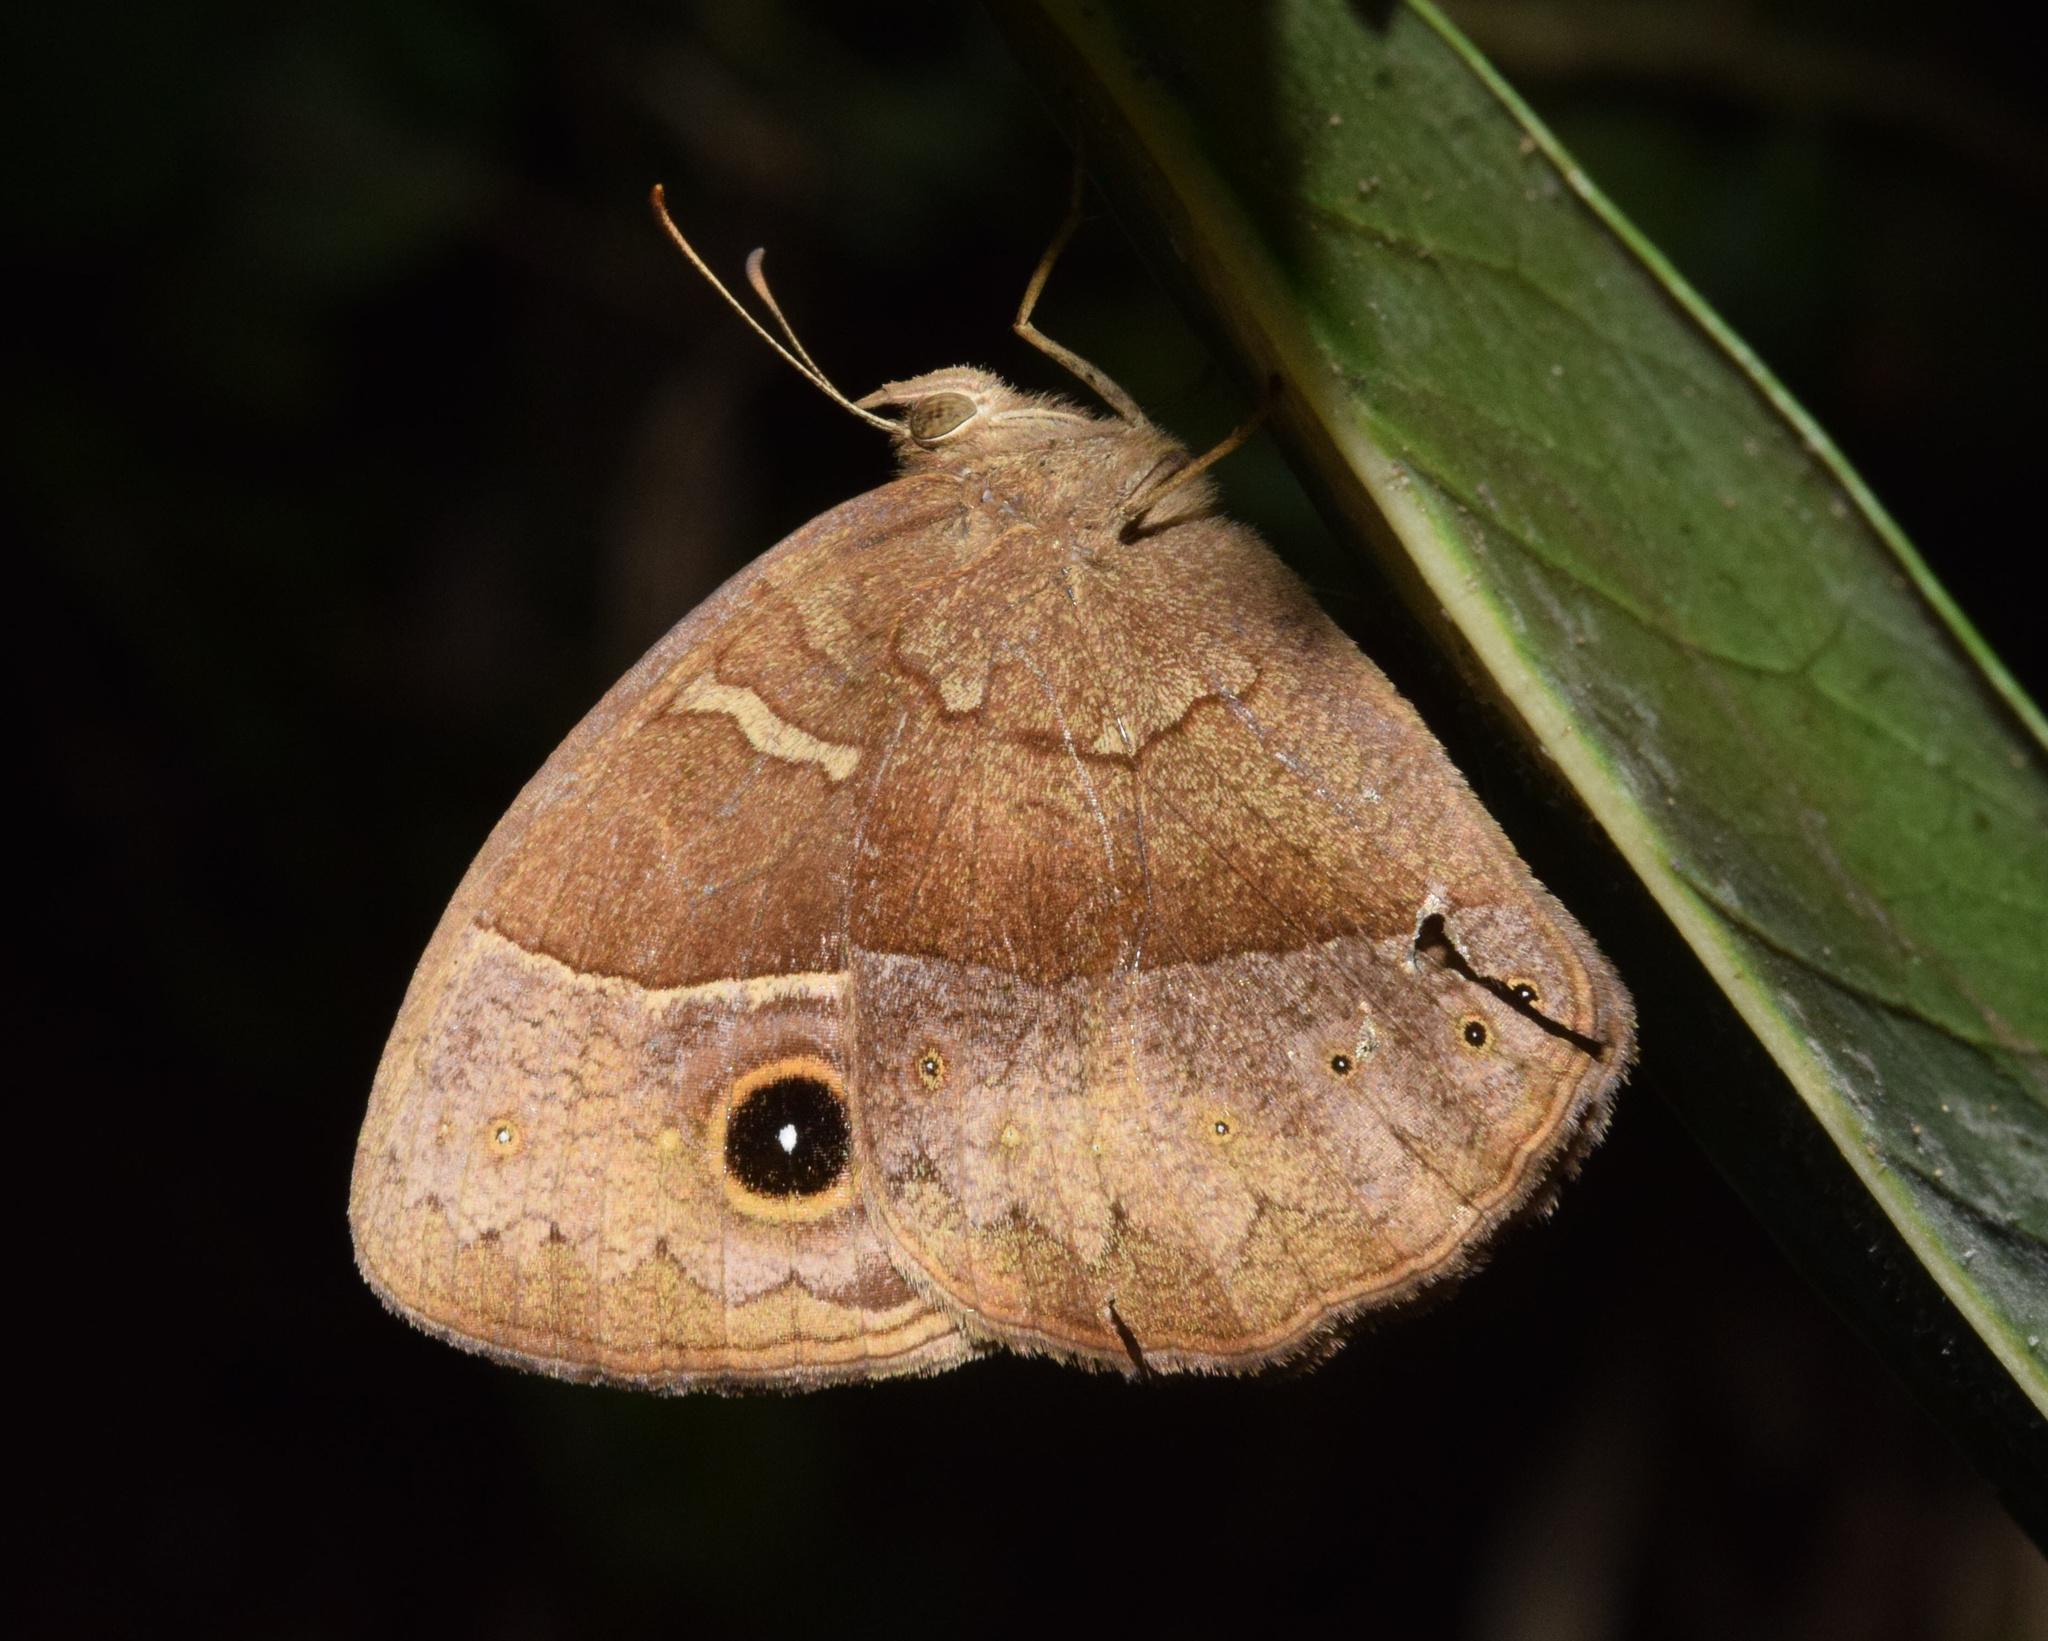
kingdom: Animalia
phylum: Arthropoda
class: Insecta
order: Lepidoptera
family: Nymphalidae
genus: Mycalesis
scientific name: Mycalesis rhacotis
